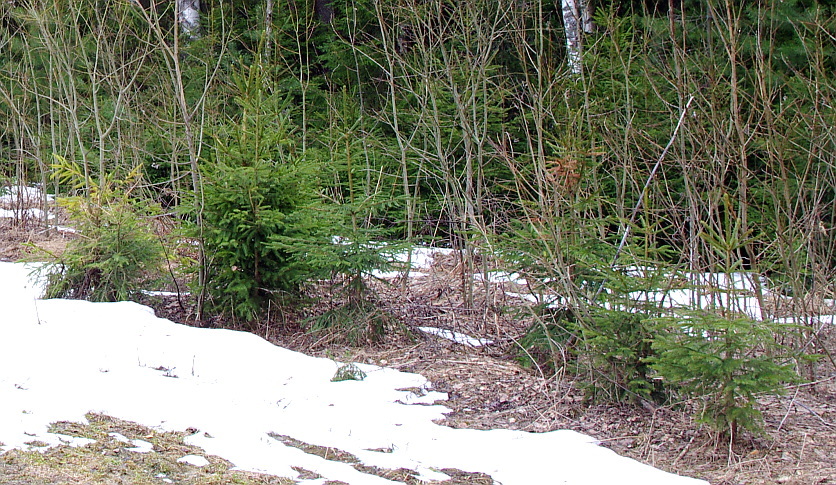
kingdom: Plantae
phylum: Tracheophyta
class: Pinopsida
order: Pinales
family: Pinaceae
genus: Picea
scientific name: Picea abies
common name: Norway spruce
